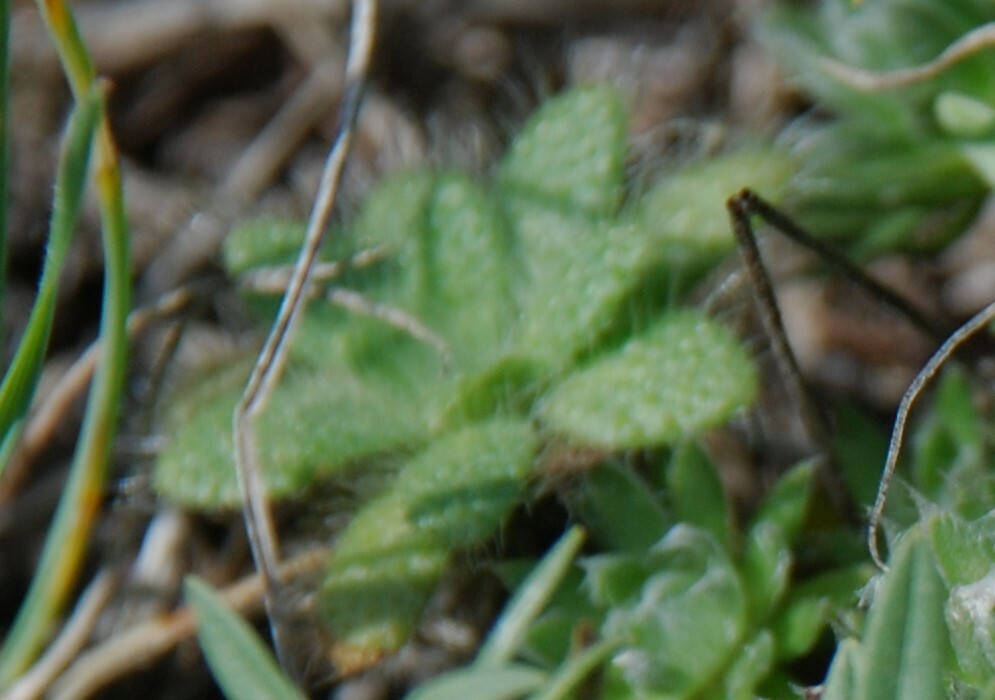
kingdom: Plantae
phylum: Tracheophyta
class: Magnoliopsida
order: Brassicales
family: Brassicaceae
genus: Clausia
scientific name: Clausia aprica
